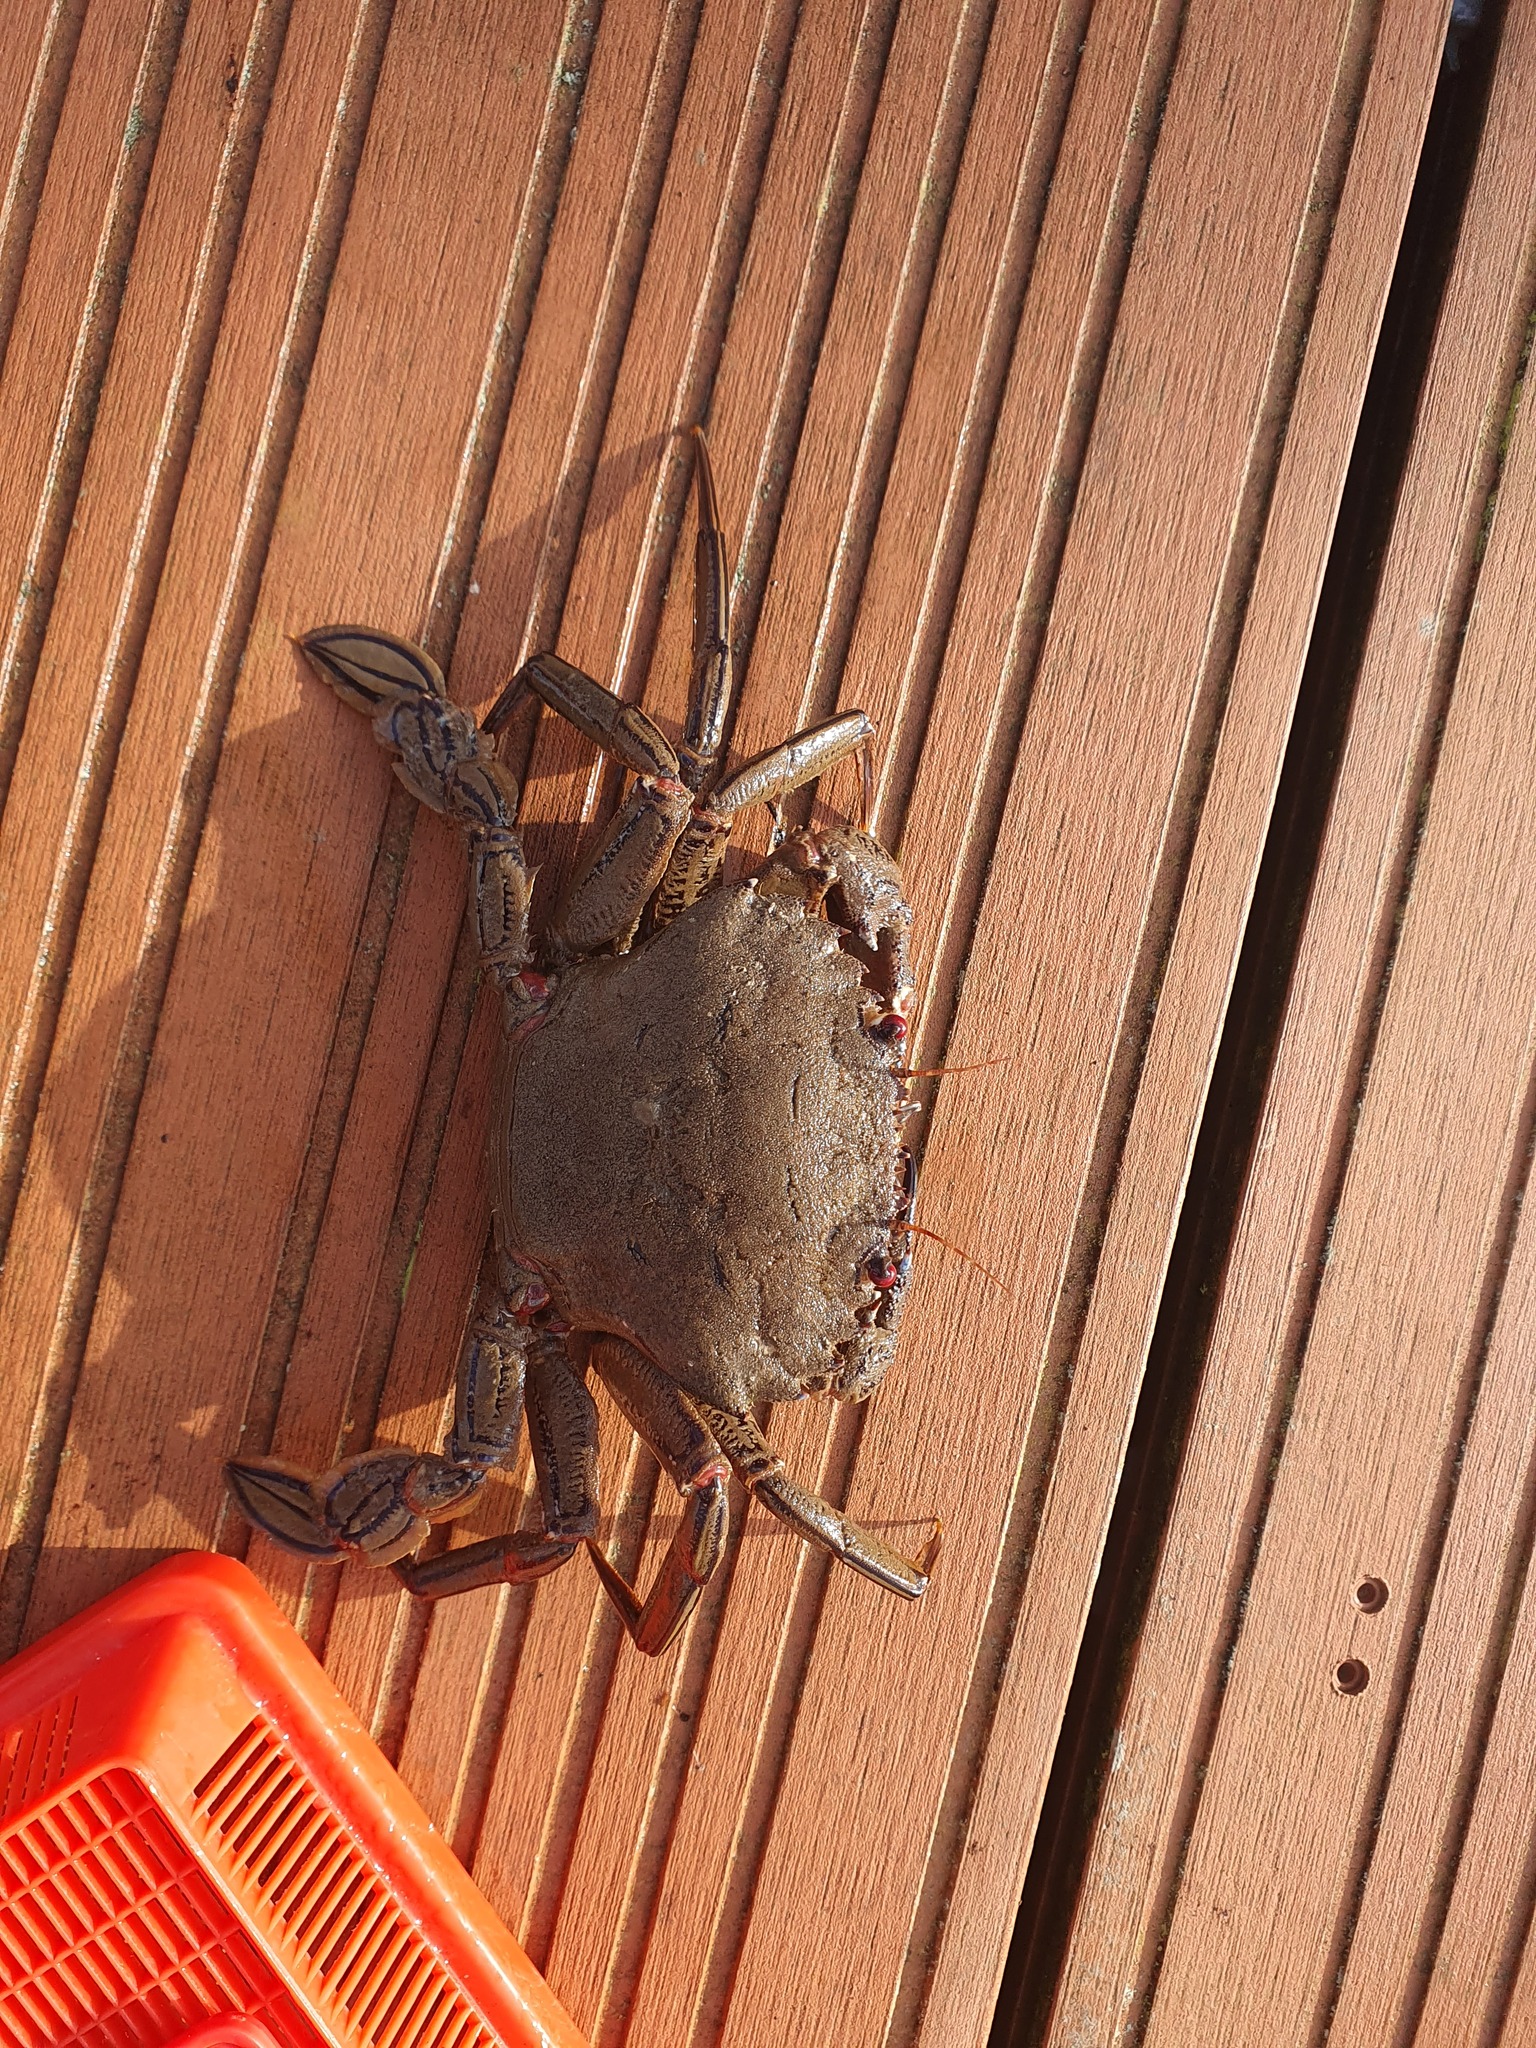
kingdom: Animalia
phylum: Arthropoda
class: Malacostraca
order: Decapoda
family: Polybiidae
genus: Necora
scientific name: Necora puber
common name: Velvet swimming crab
